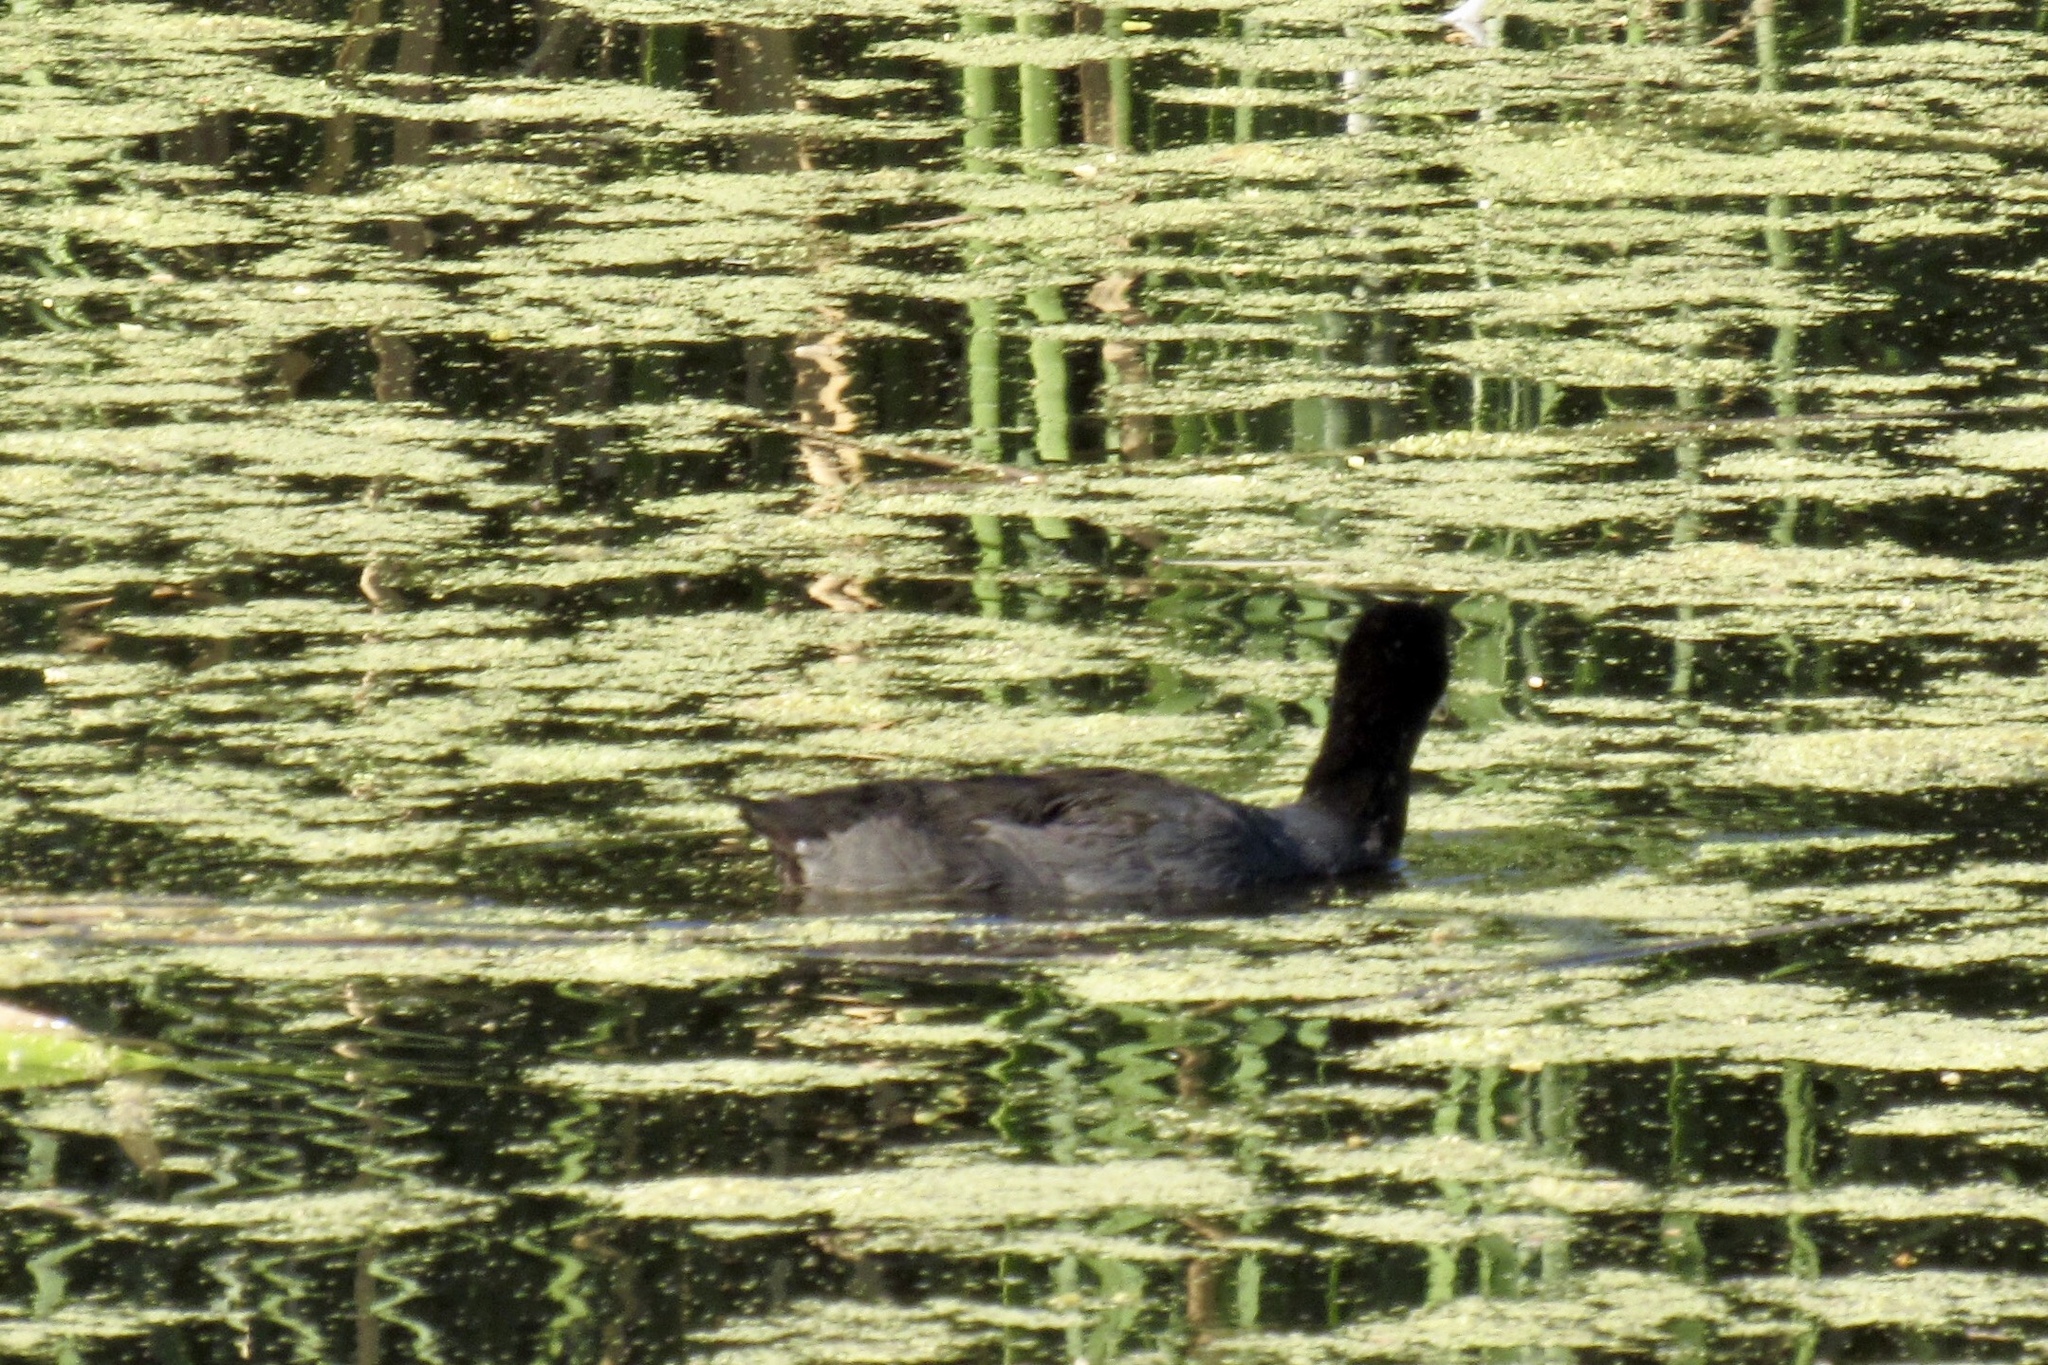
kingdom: Animalia
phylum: Chordata
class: Aves
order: Gruiformes
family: Rallidae
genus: Fulica
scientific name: Fulica americana
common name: American coot
